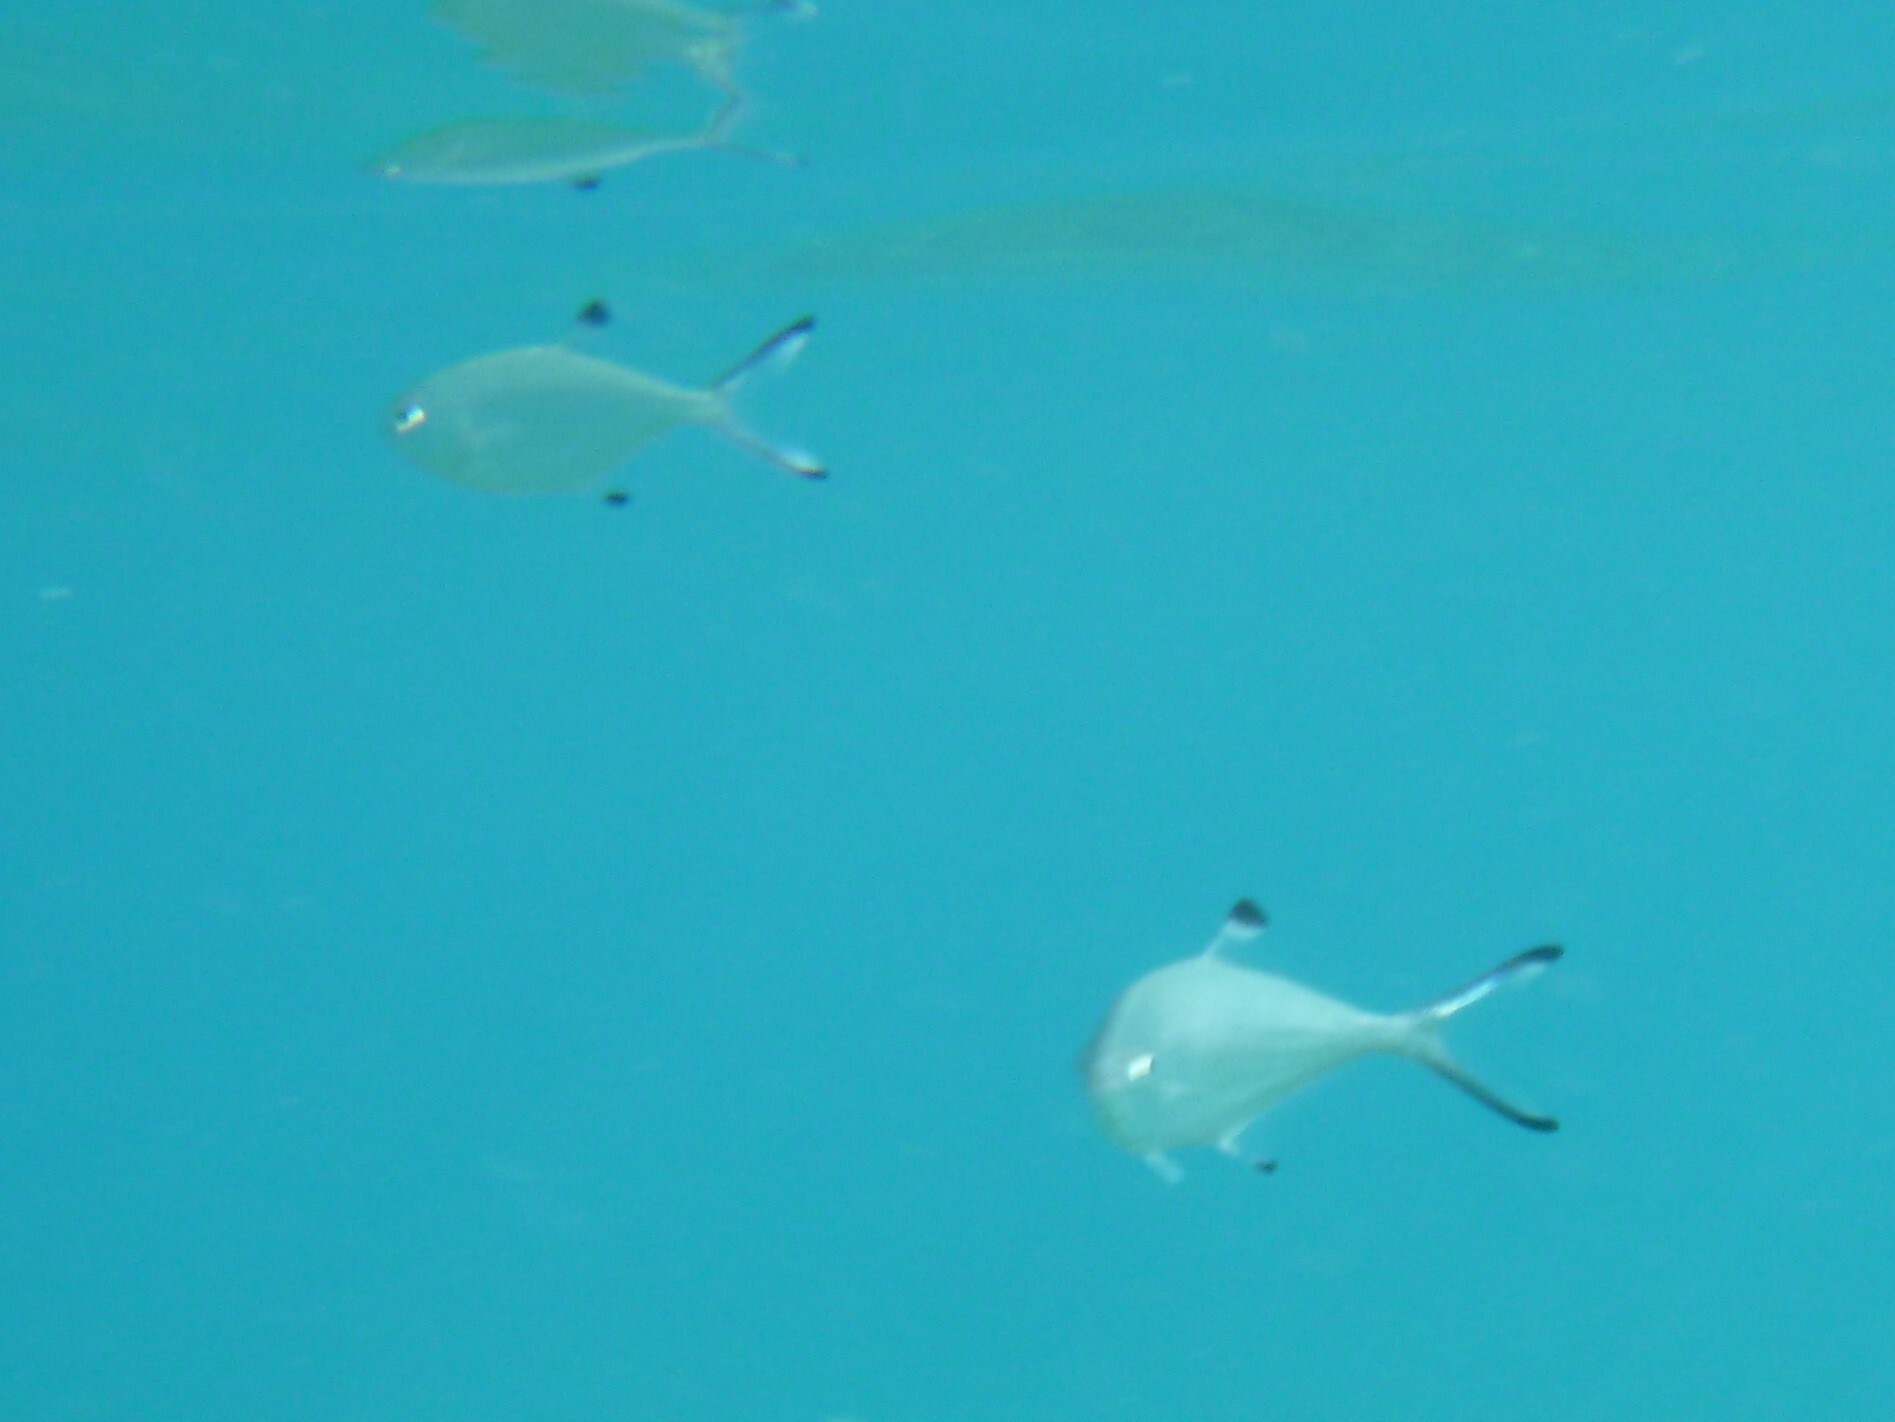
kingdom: Animalia
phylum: Chordata
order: Perciformes
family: Carangidae
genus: Trachinotus
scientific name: Trachinotus ovatus
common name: Pompano
